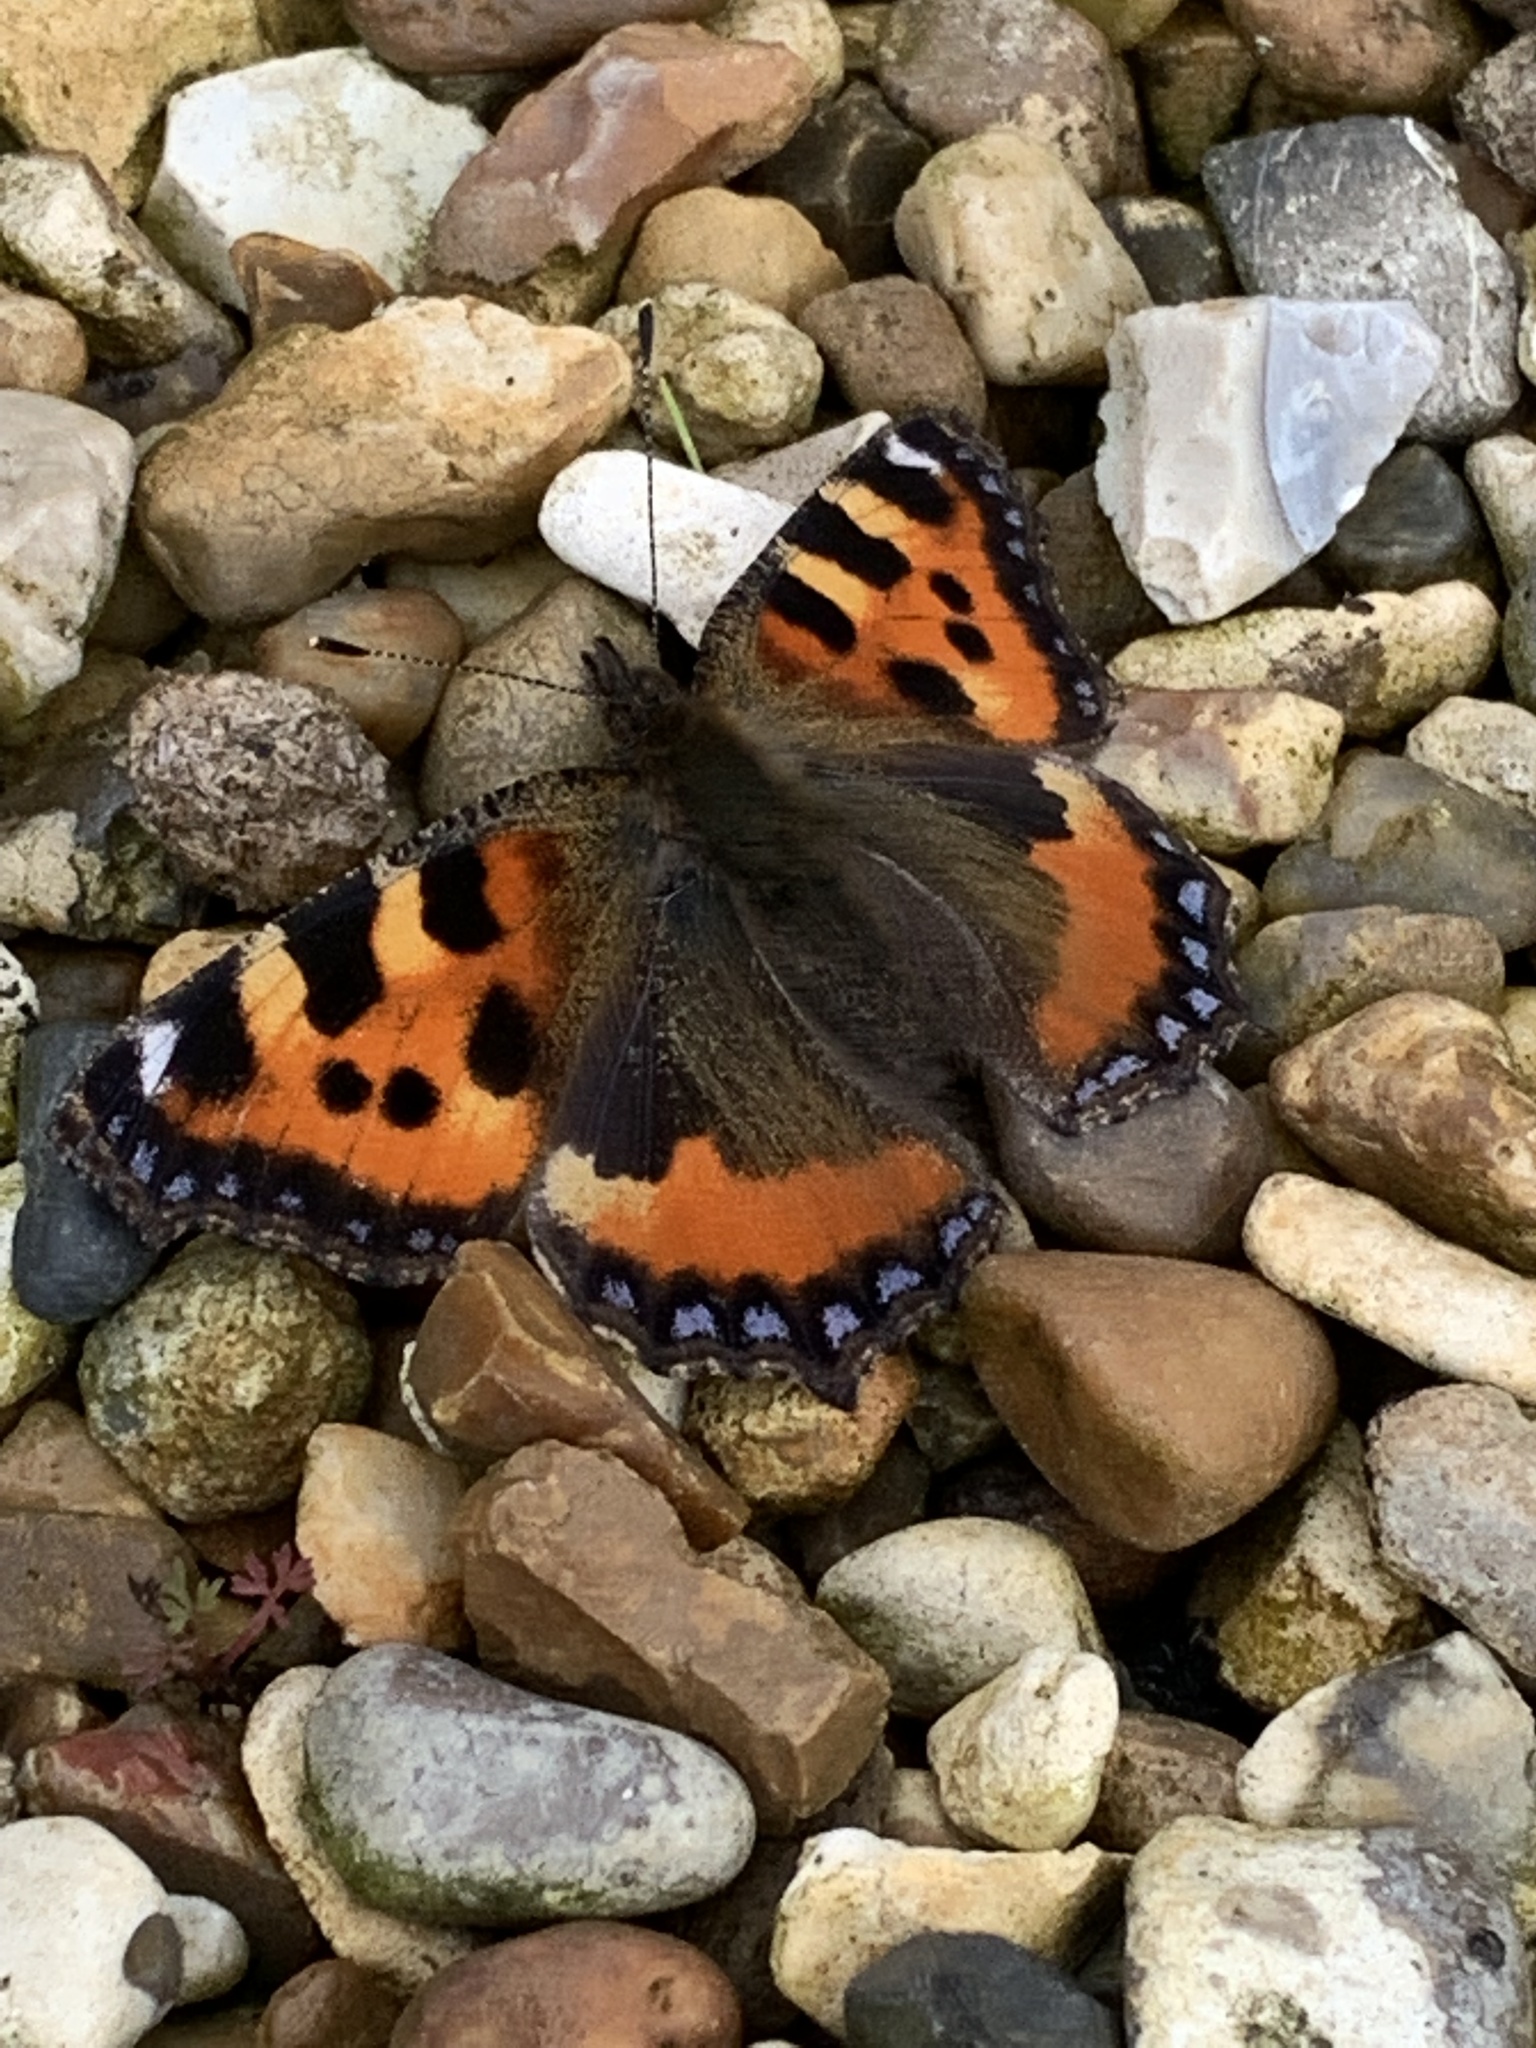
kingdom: Animalia
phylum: Arthropoda
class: Insecta
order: Lepidoptera
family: Nymphalidae
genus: Aglais
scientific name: Aglais urticae
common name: Small tortoiseshell
